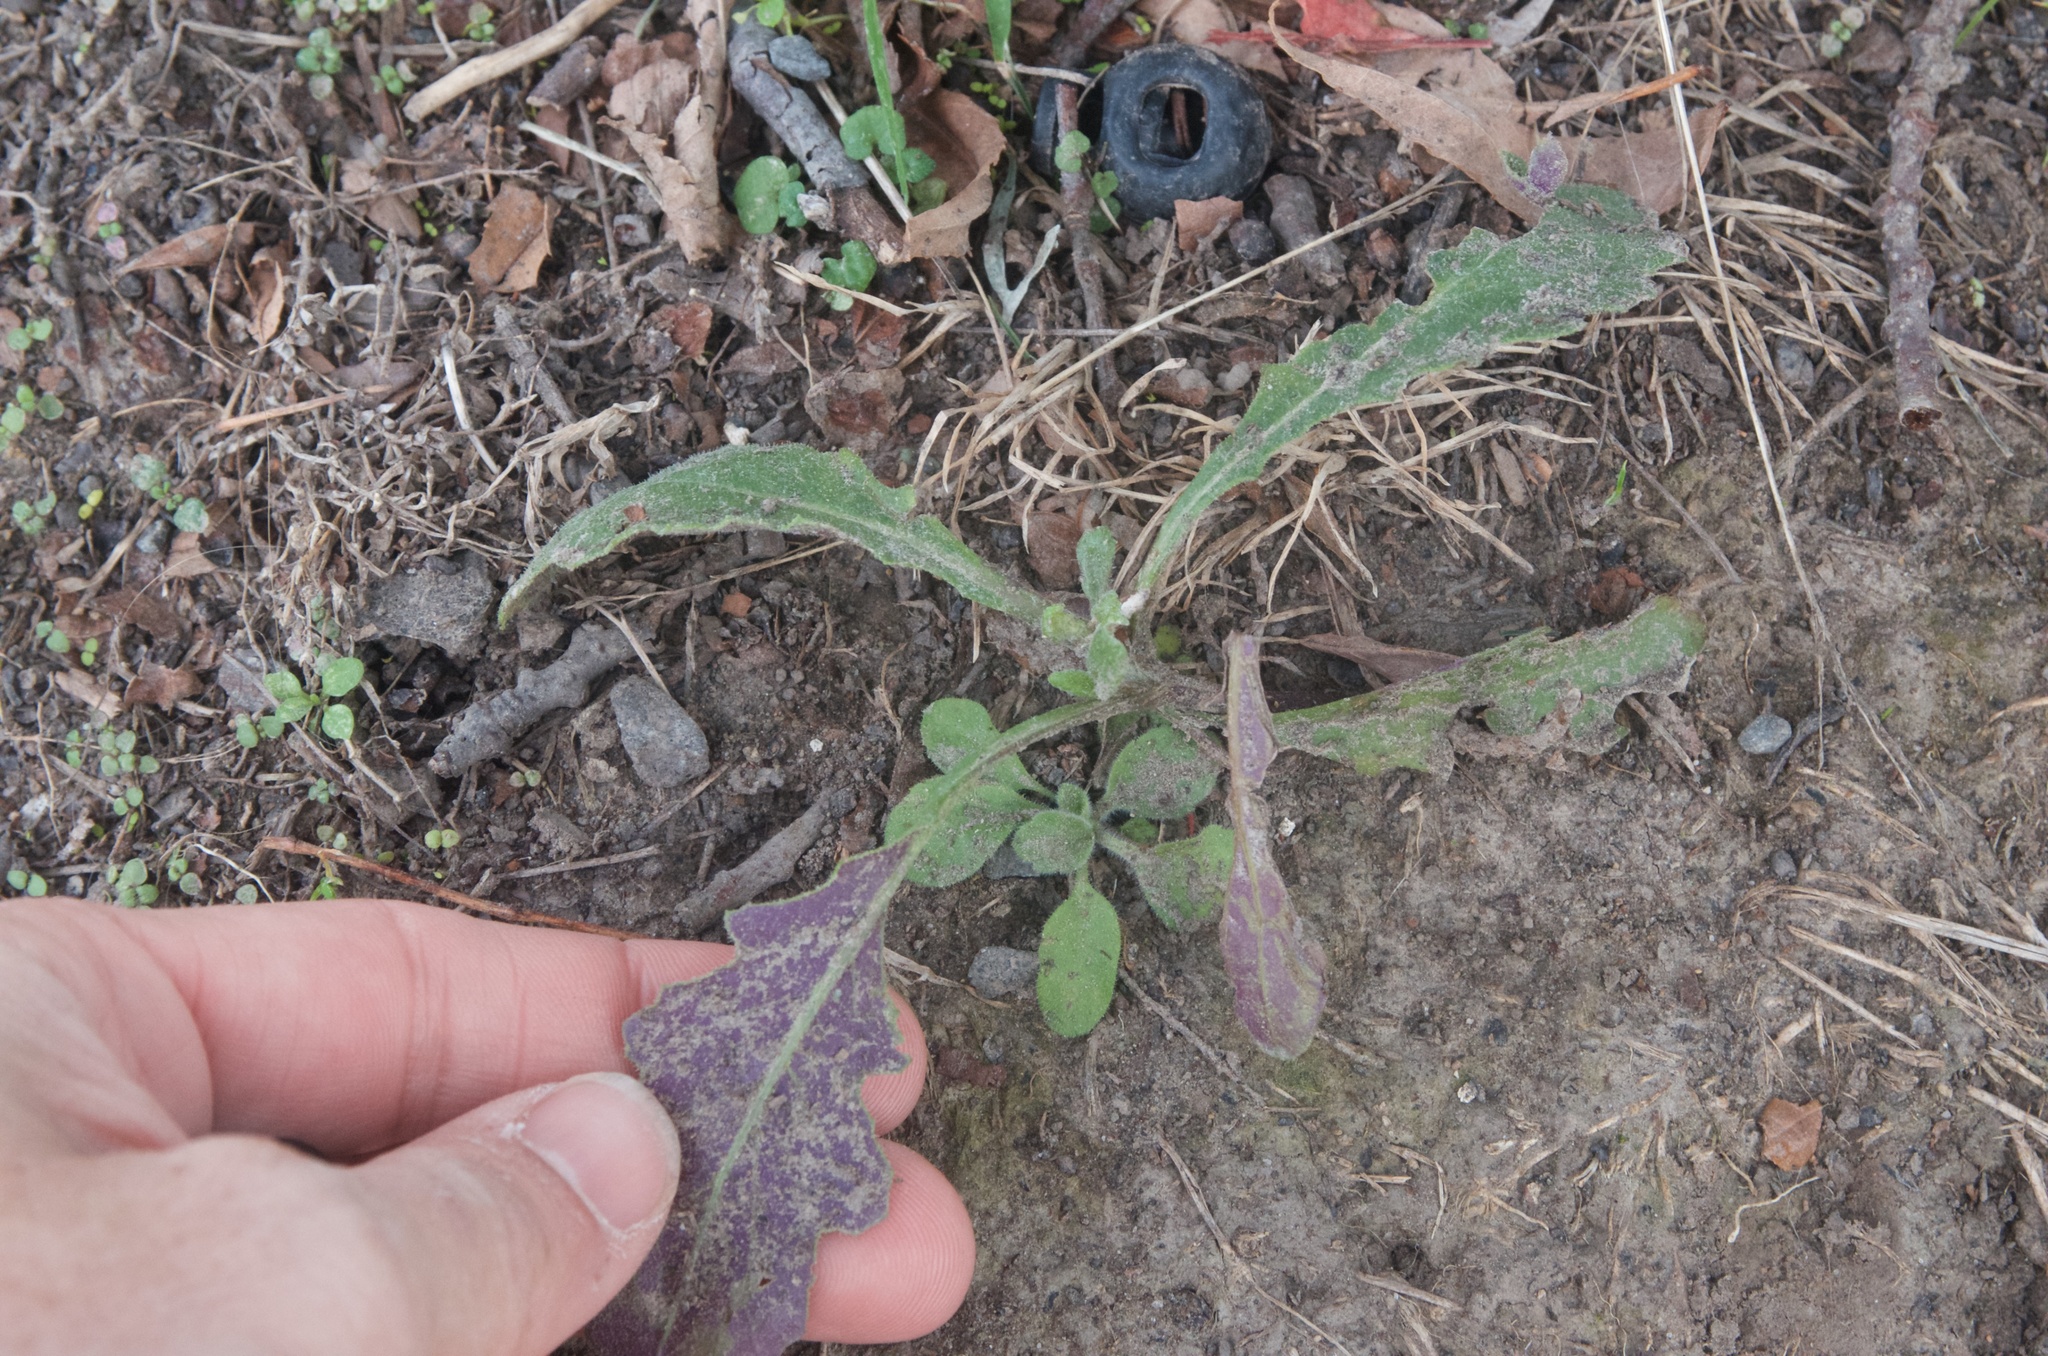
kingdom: Plantae
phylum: Tracheophyta
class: Magnoliopsida
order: Asterales
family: Asteraceae
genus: Senecio
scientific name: Senecio glomeratus
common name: Cutleaf burnweed
